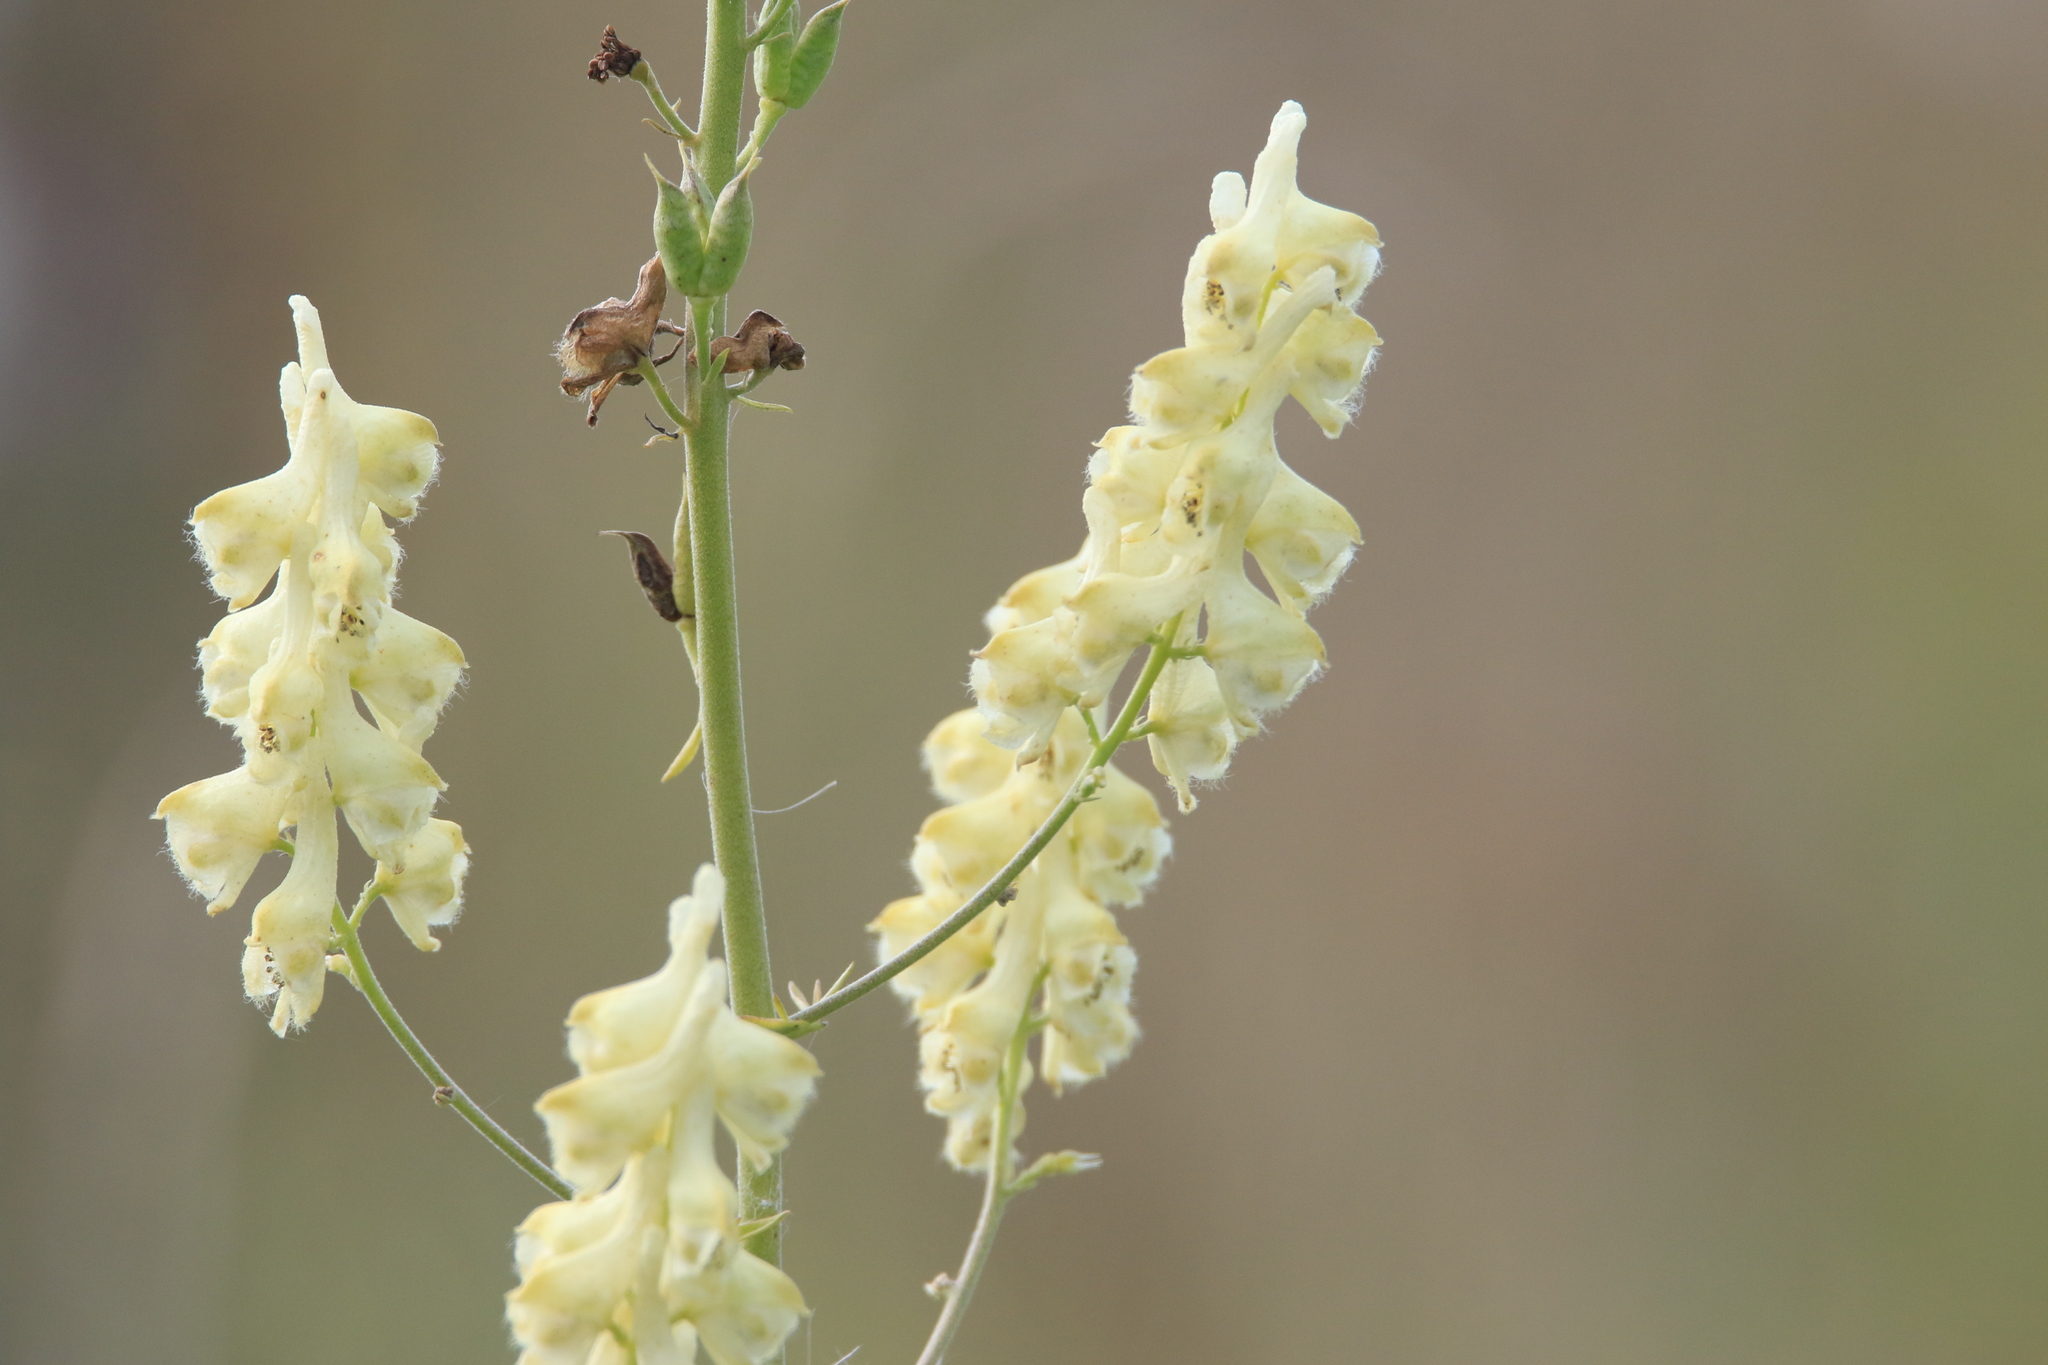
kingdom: Plantae
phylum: Tracheophyta
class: Magnoliopsida
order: Ranunculales
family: Ranunculaceae
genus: Aconitum
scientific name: Aconitum barbatum
